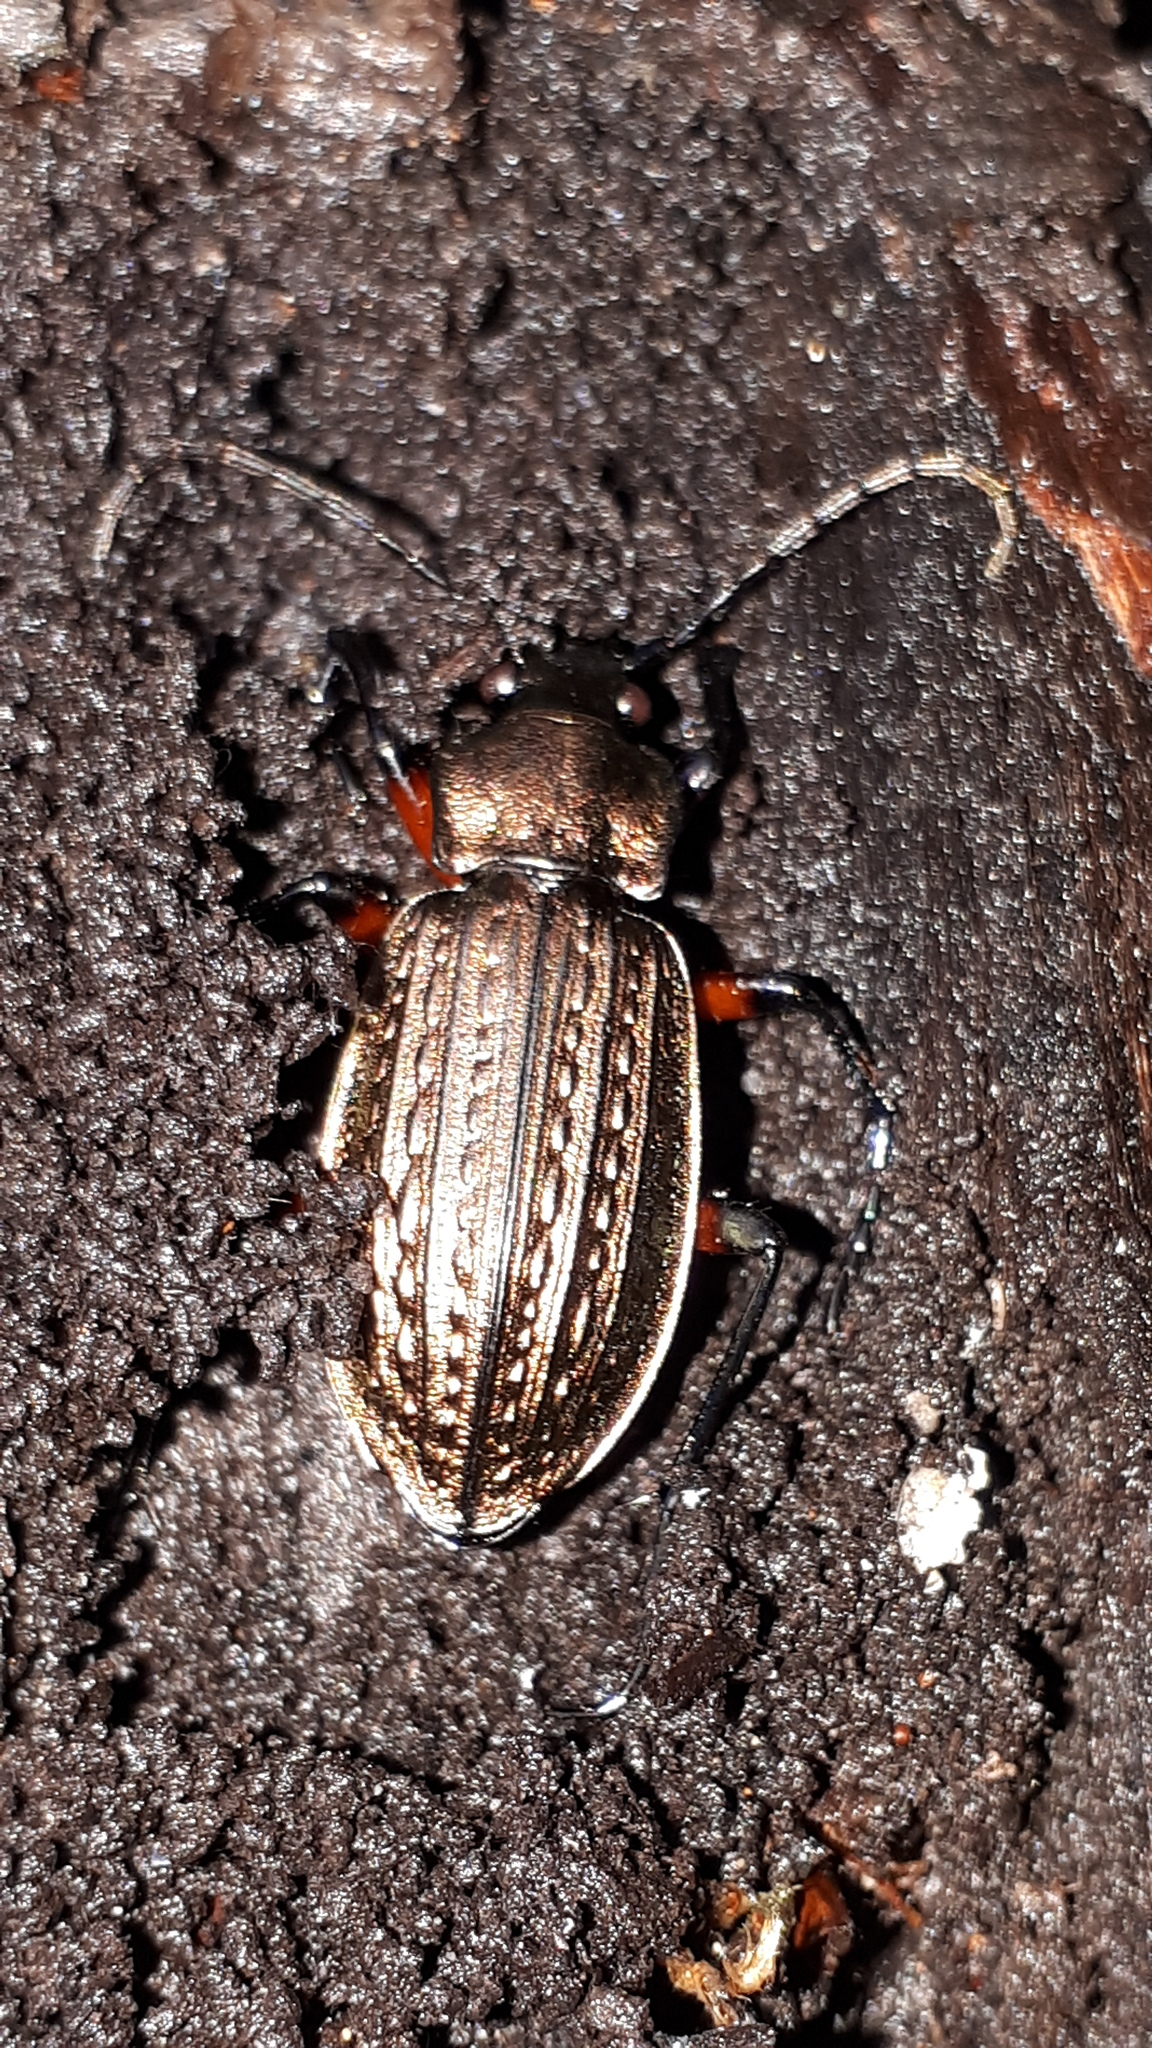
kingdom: Animalia
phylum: Arthropoda
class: Insecta
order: Coleoptera
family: Carabidae
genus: Carabus
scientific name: Carabus granulatus
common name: Granulate ground beetle
